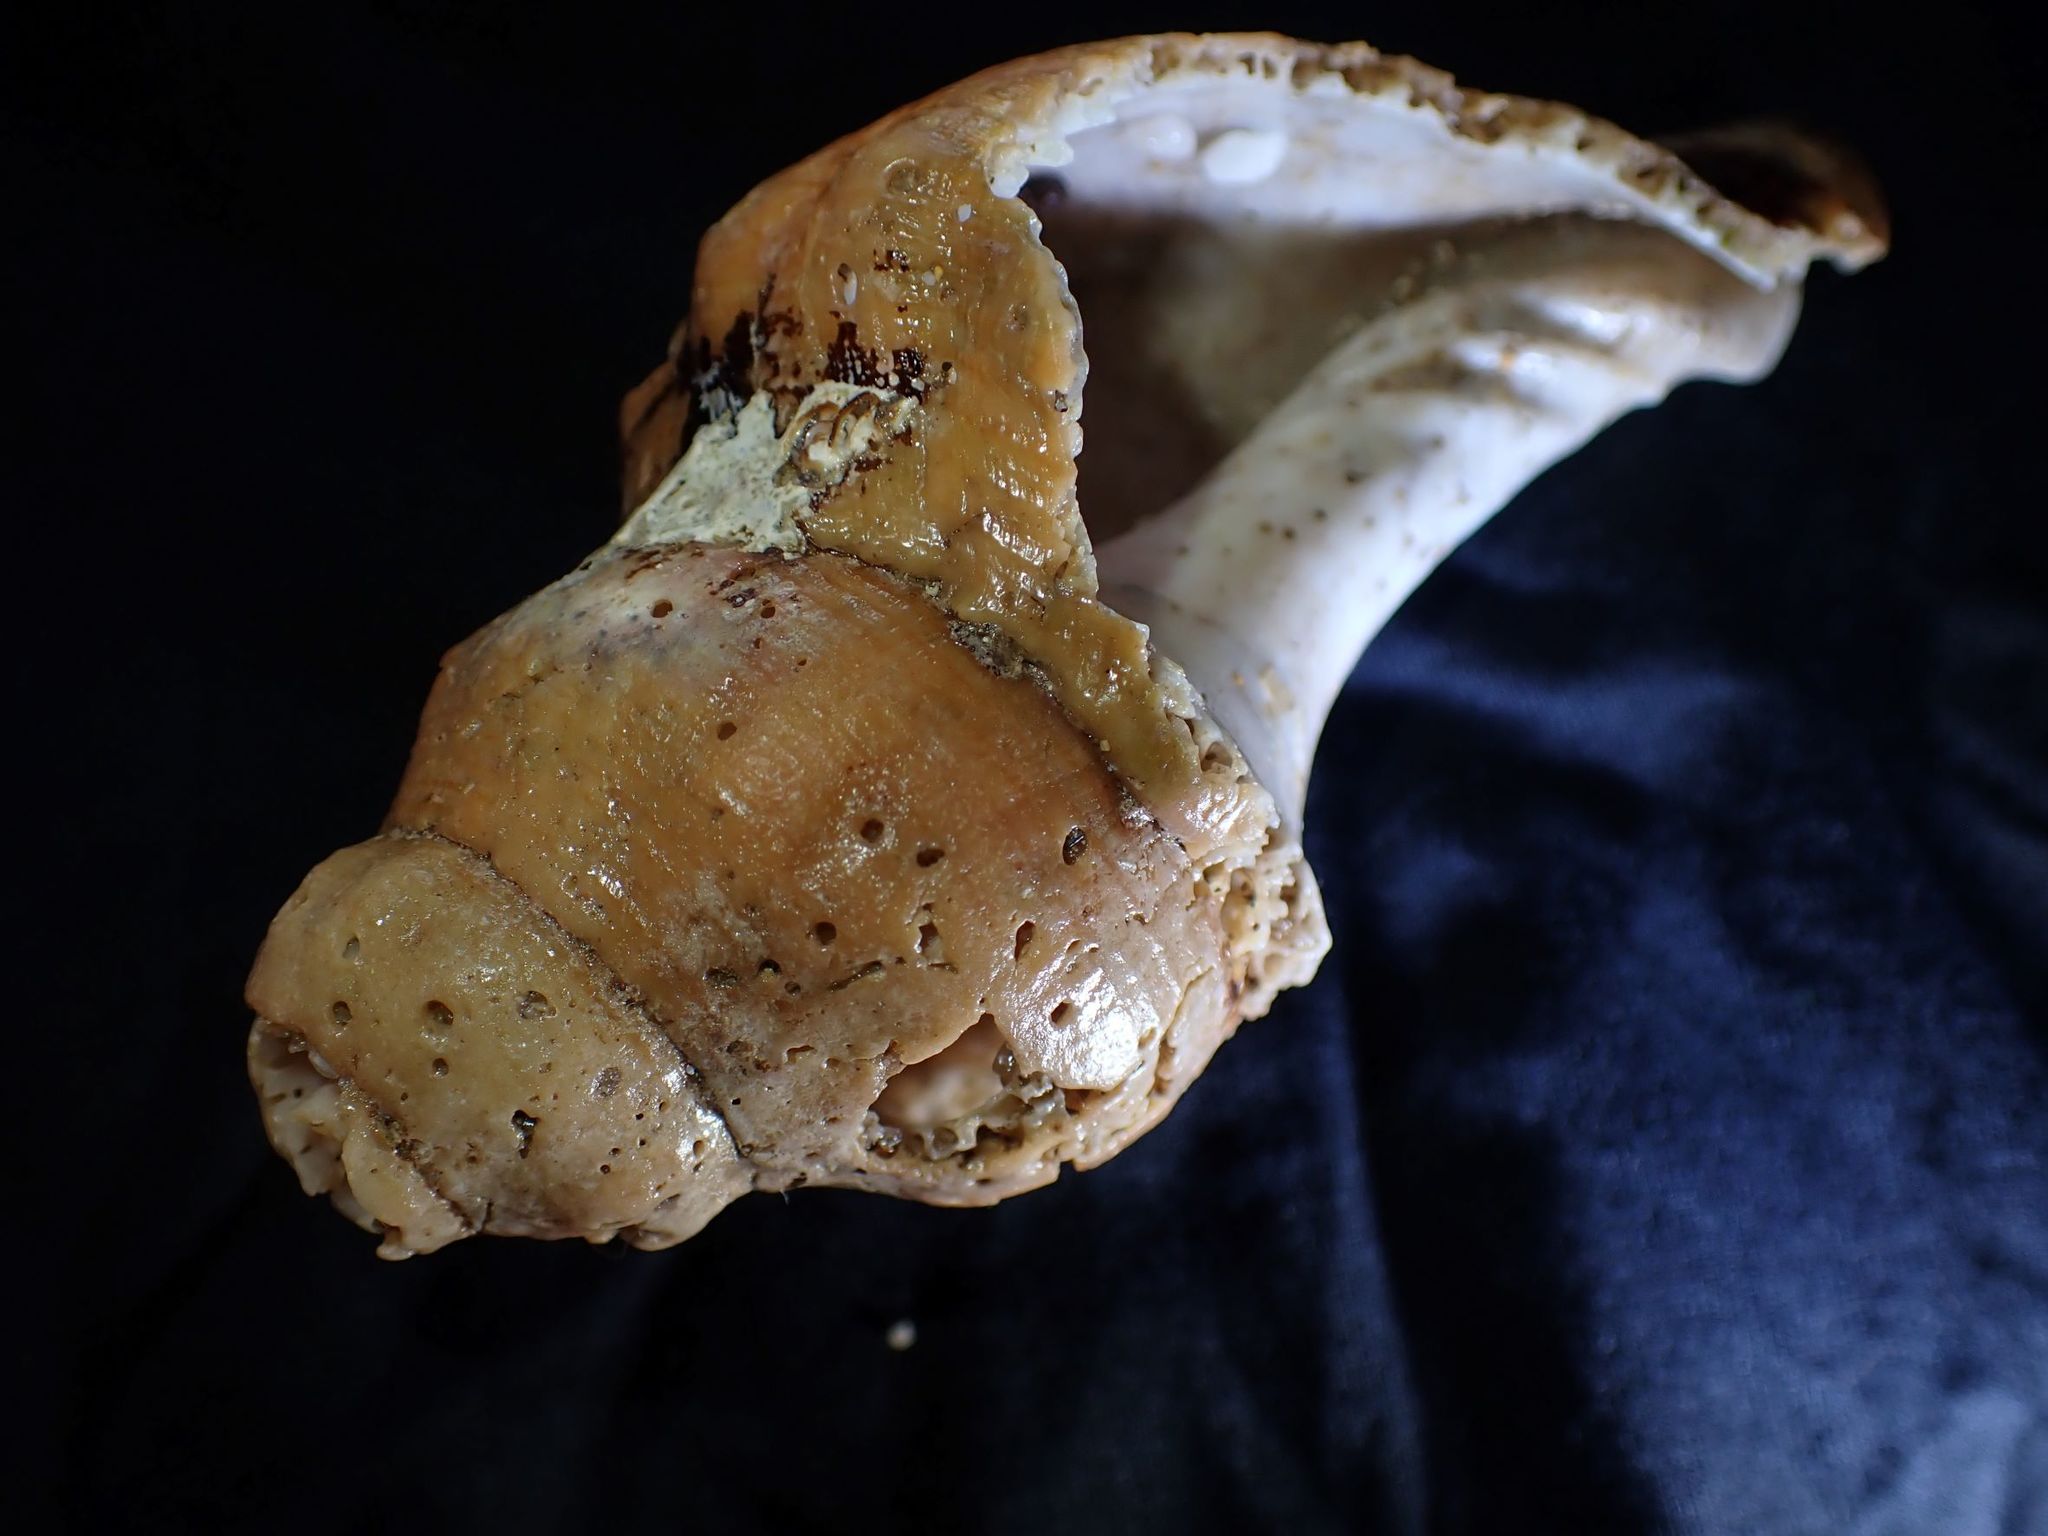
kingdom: Animalia
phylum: Mollusca
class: Gastropoda
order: Neogastropoda
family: Fasciolariidae
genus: Australaria
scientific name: Australaria australasia
